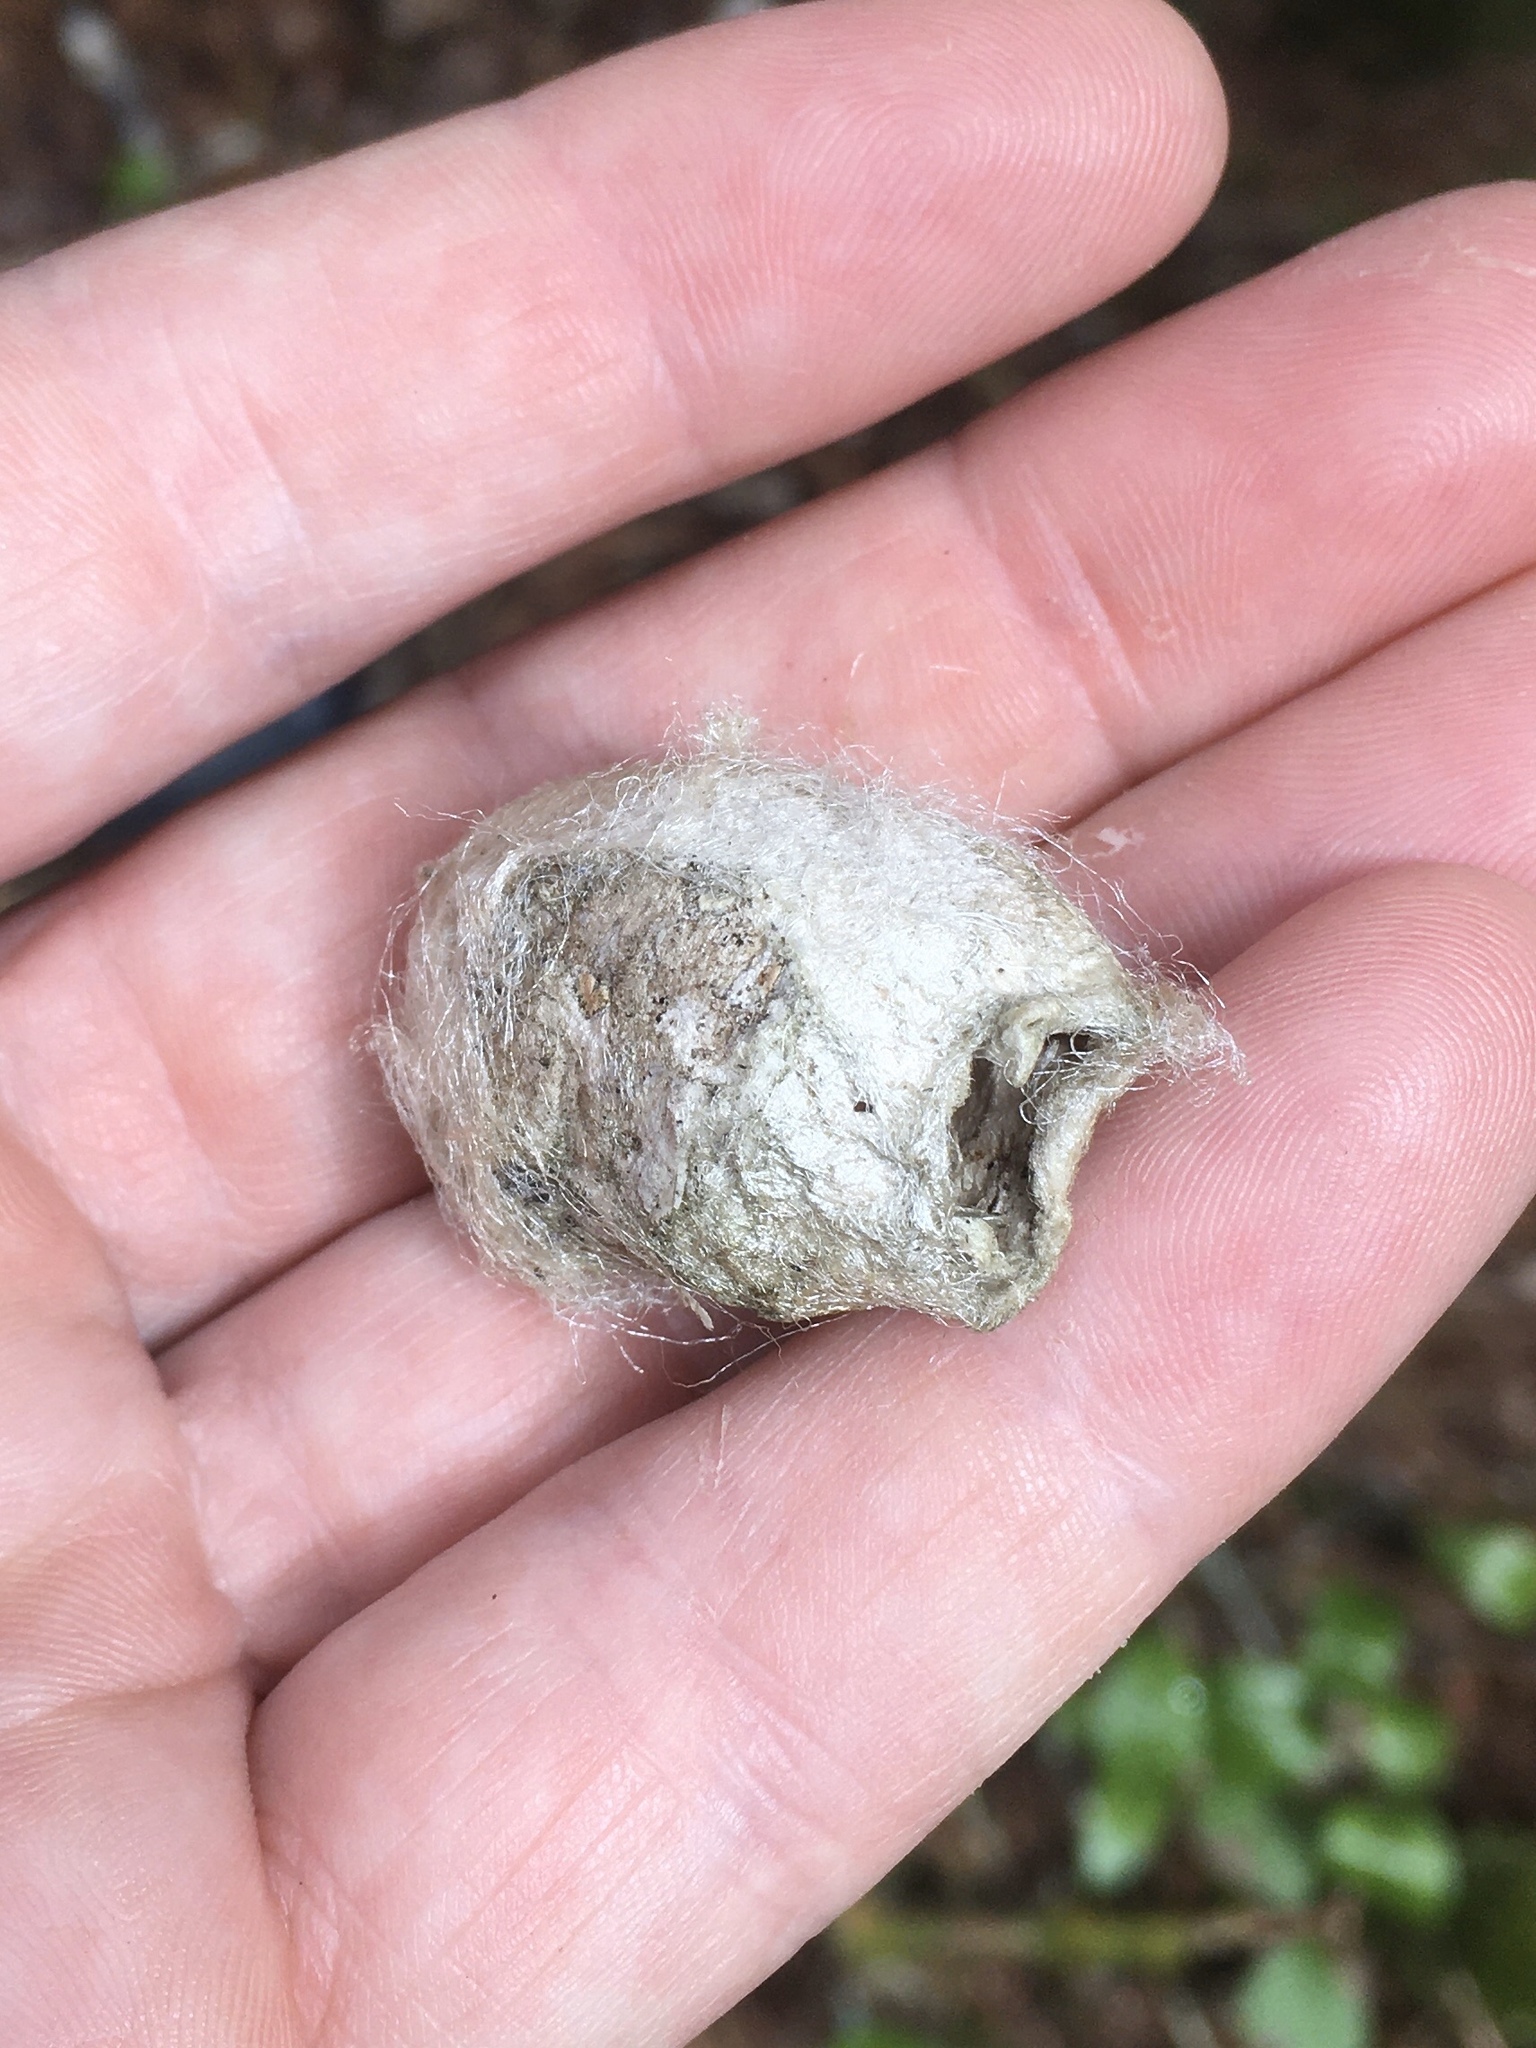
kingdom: Animalia
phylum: Arthropoda
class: Insecta
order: Lepidoptera
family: Saturniidae
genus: Antheraea
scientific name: Antheraea polyphemus
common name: Polyphemus moth
